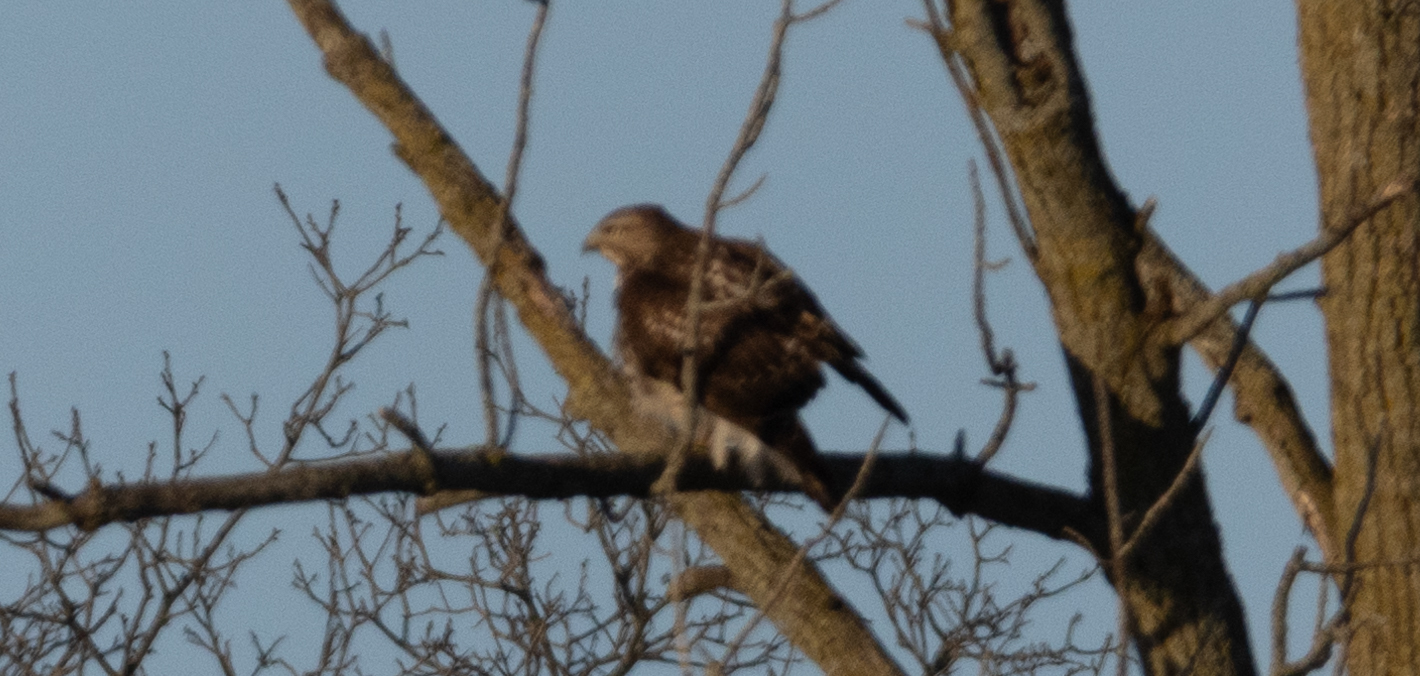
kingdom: Animalia
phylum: Chordata
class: Aves
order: Accipitriformes
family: Accipitridae
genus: Buteo
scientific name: Buteo jamaicensis
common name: Red-tailed hawk
